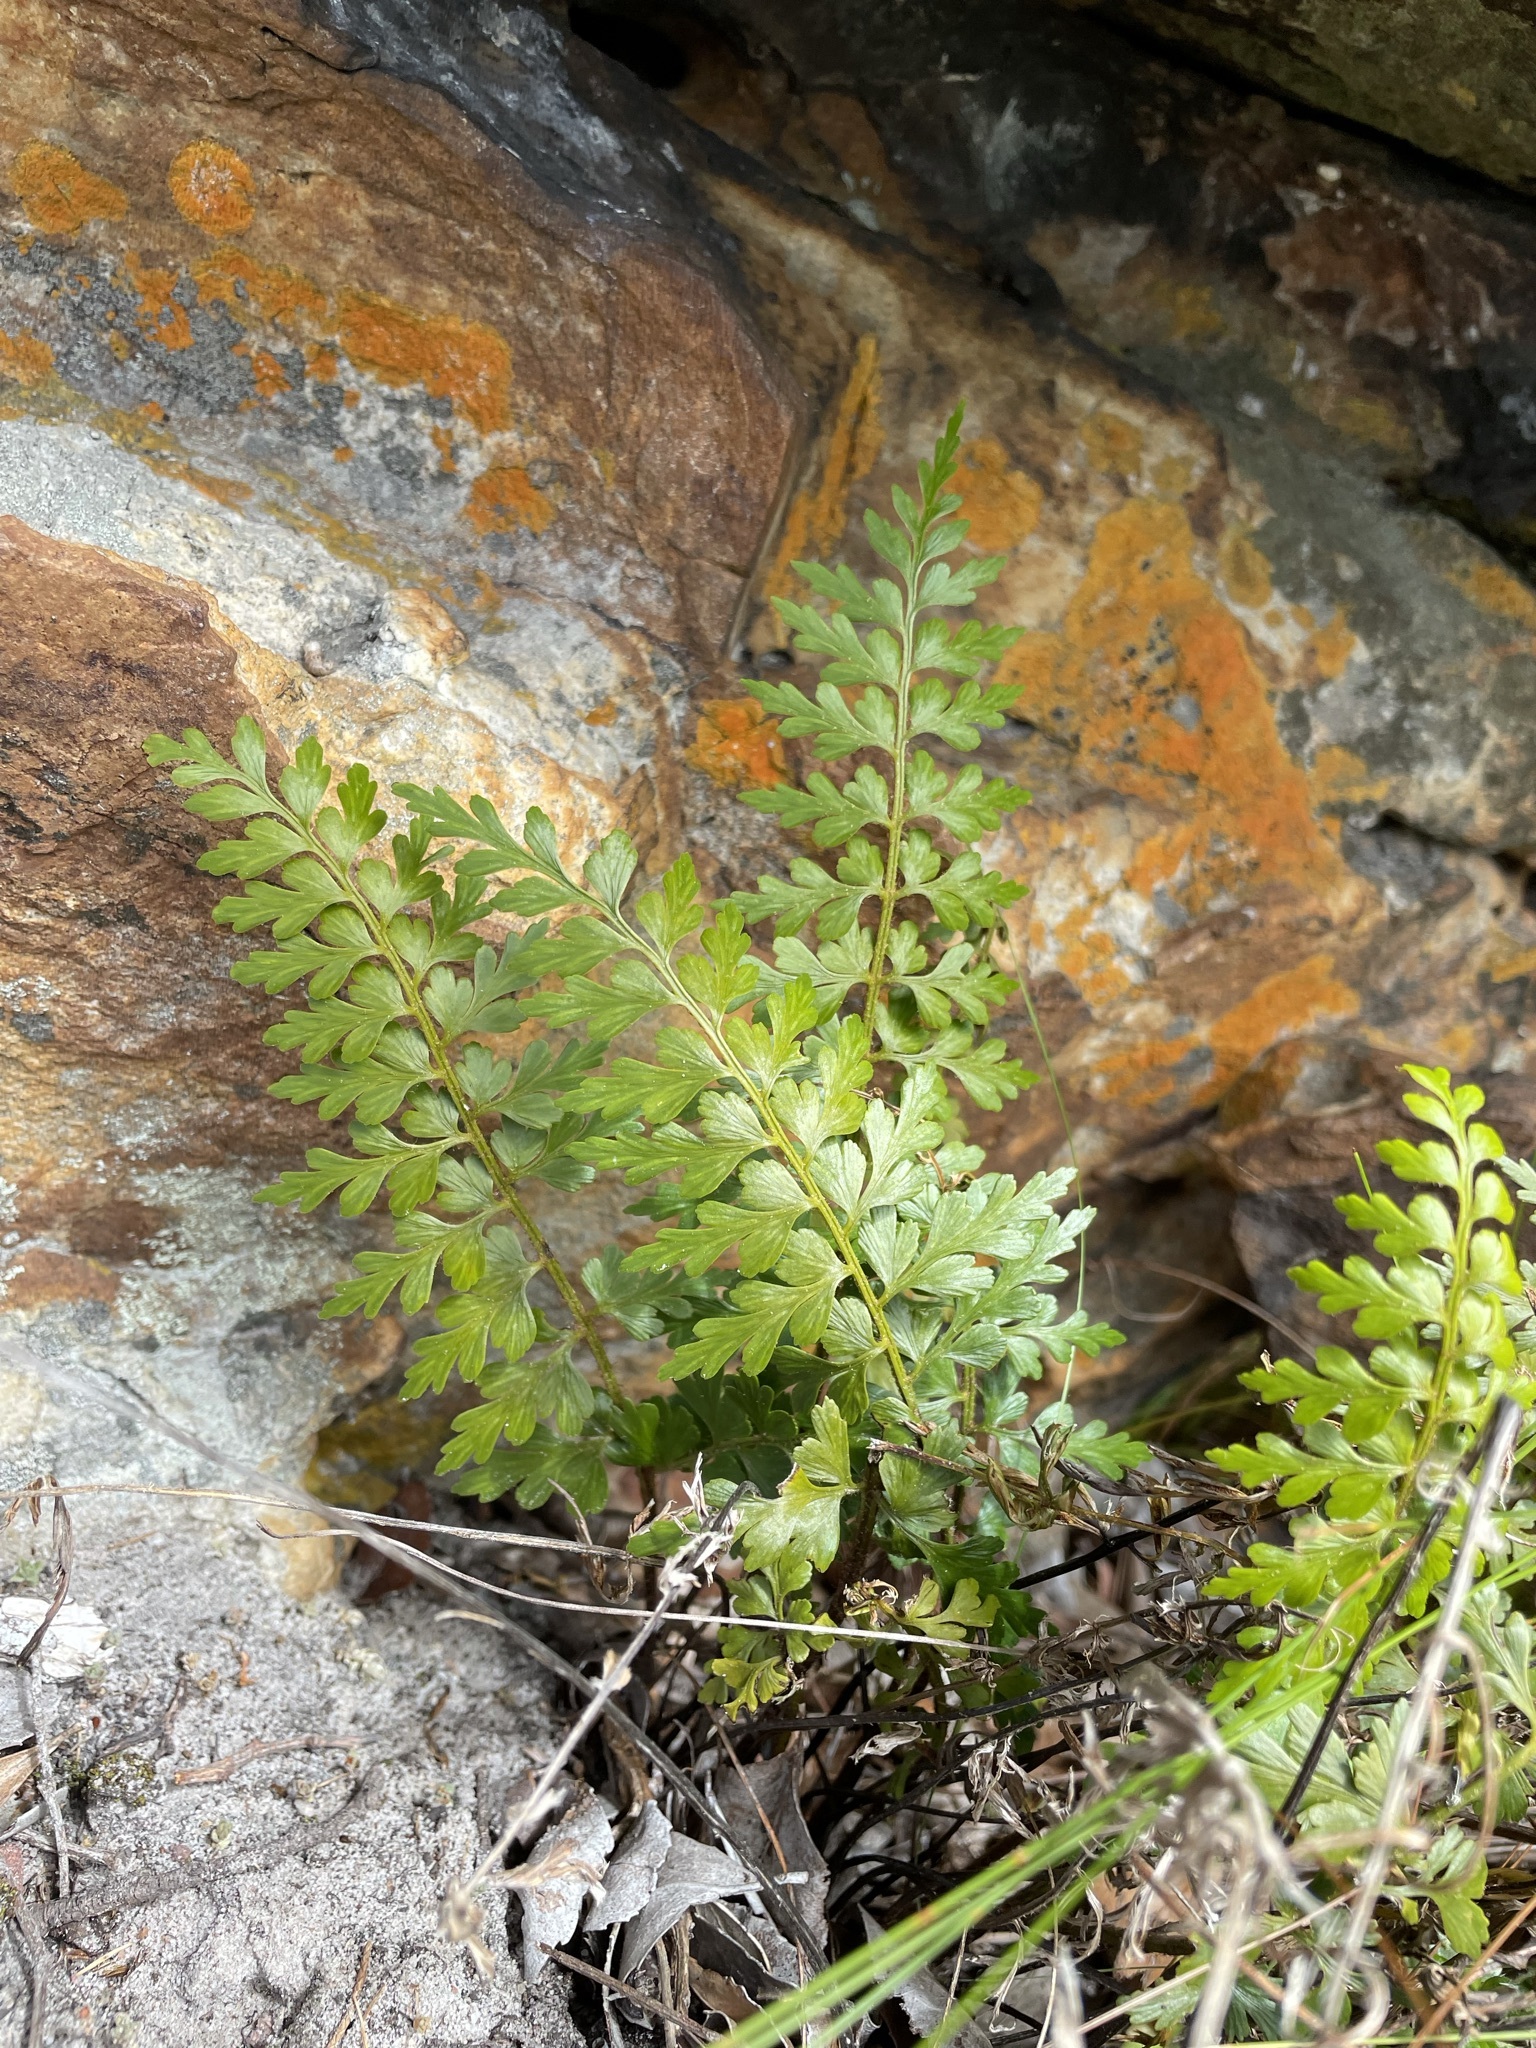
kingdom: Plantae
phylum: Tracheophyta
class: Polypodiopsida
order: Polypodiales
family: Aspleniaceae
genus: Asplenium
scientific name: Asplenium aethiopicum
